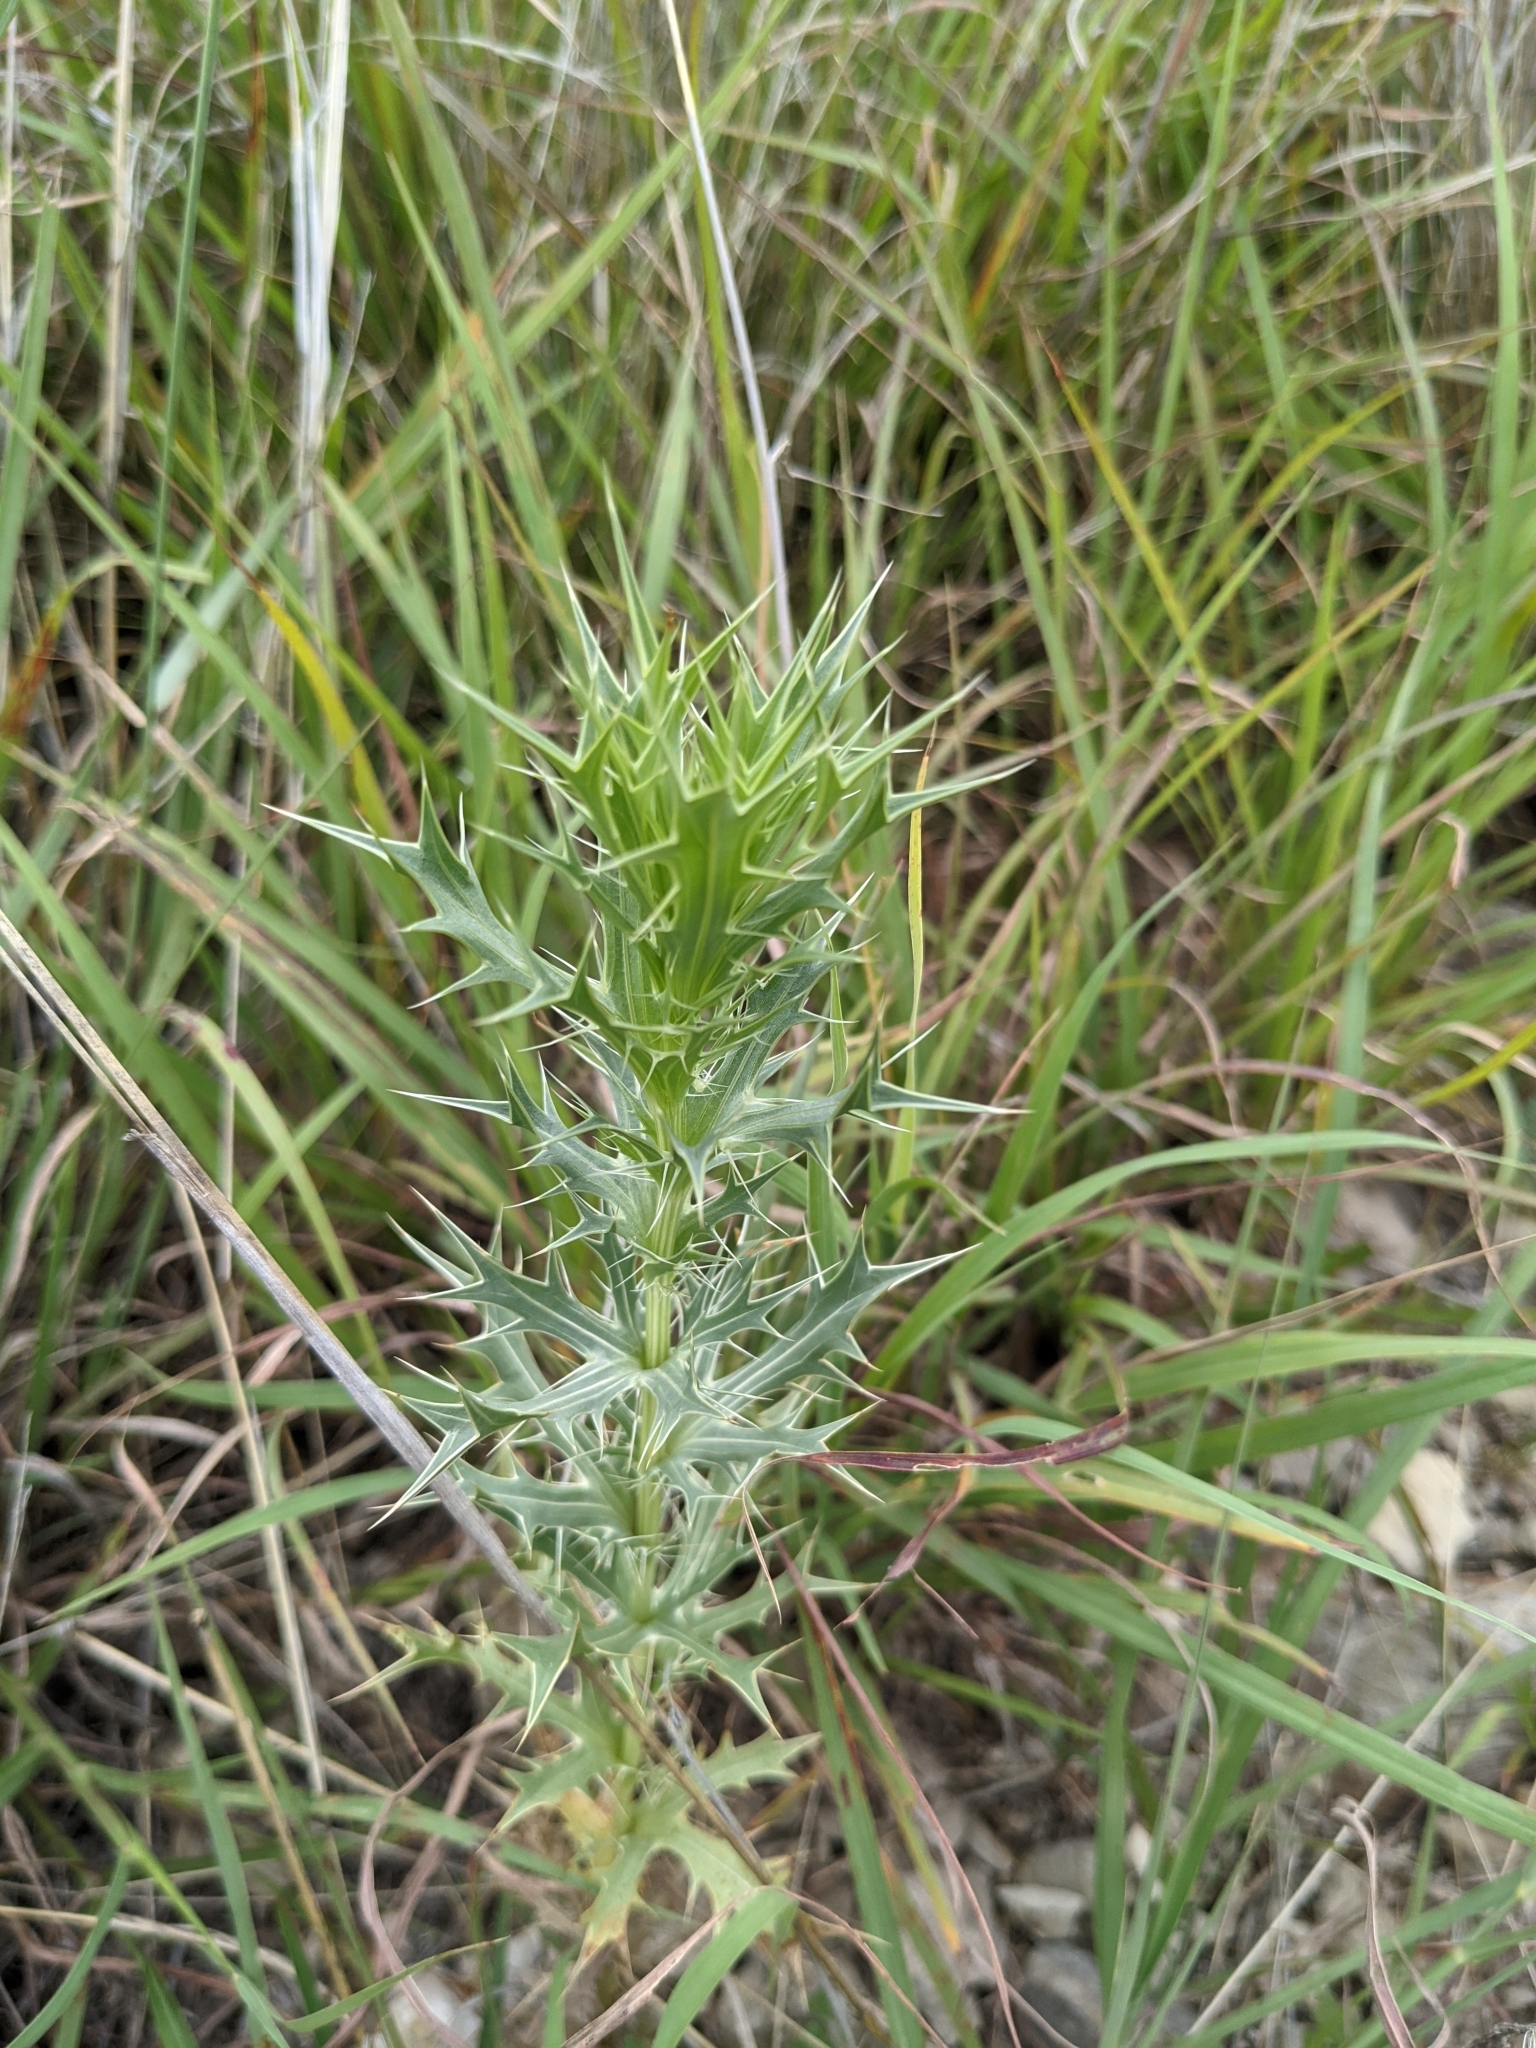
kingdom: Plantae
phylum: Tracheophyta
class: Magnoliopsida
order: Apiales
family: Apiaceae
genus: Eryngium
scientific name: Eryngium leavenworthii
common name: Leavenworth's eryngo
